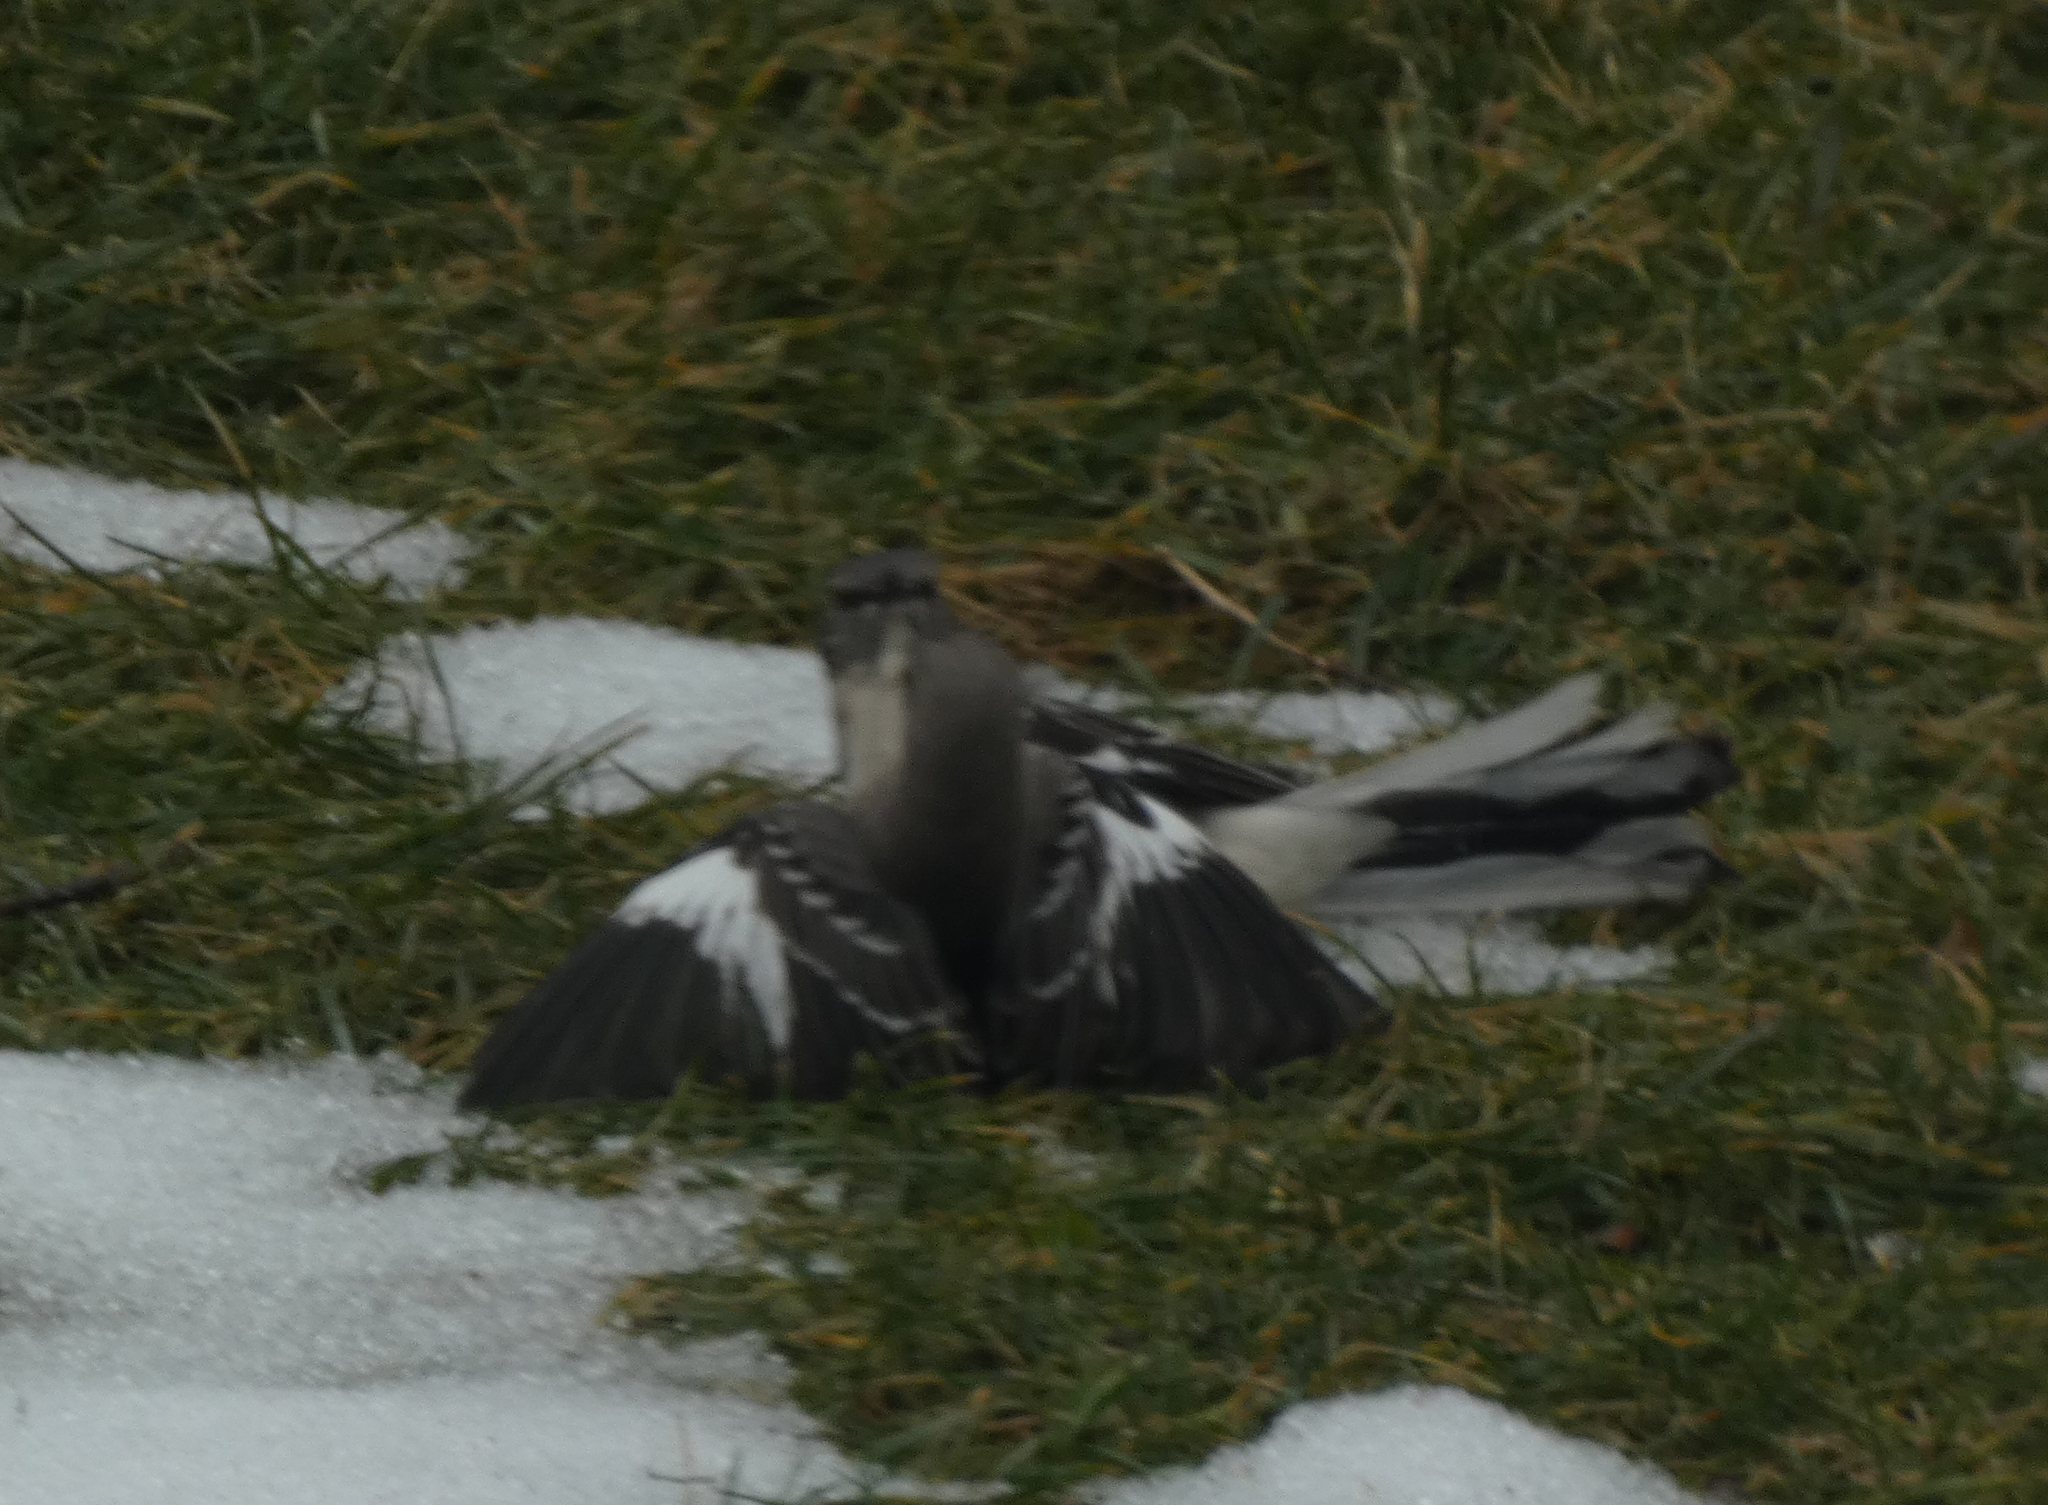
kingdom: Animalia
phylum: Chordata
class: Aves
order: Passeriformes
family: Mimidae
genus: Mimus
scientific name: Mimus polyglottos
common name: Northern mockingbird
